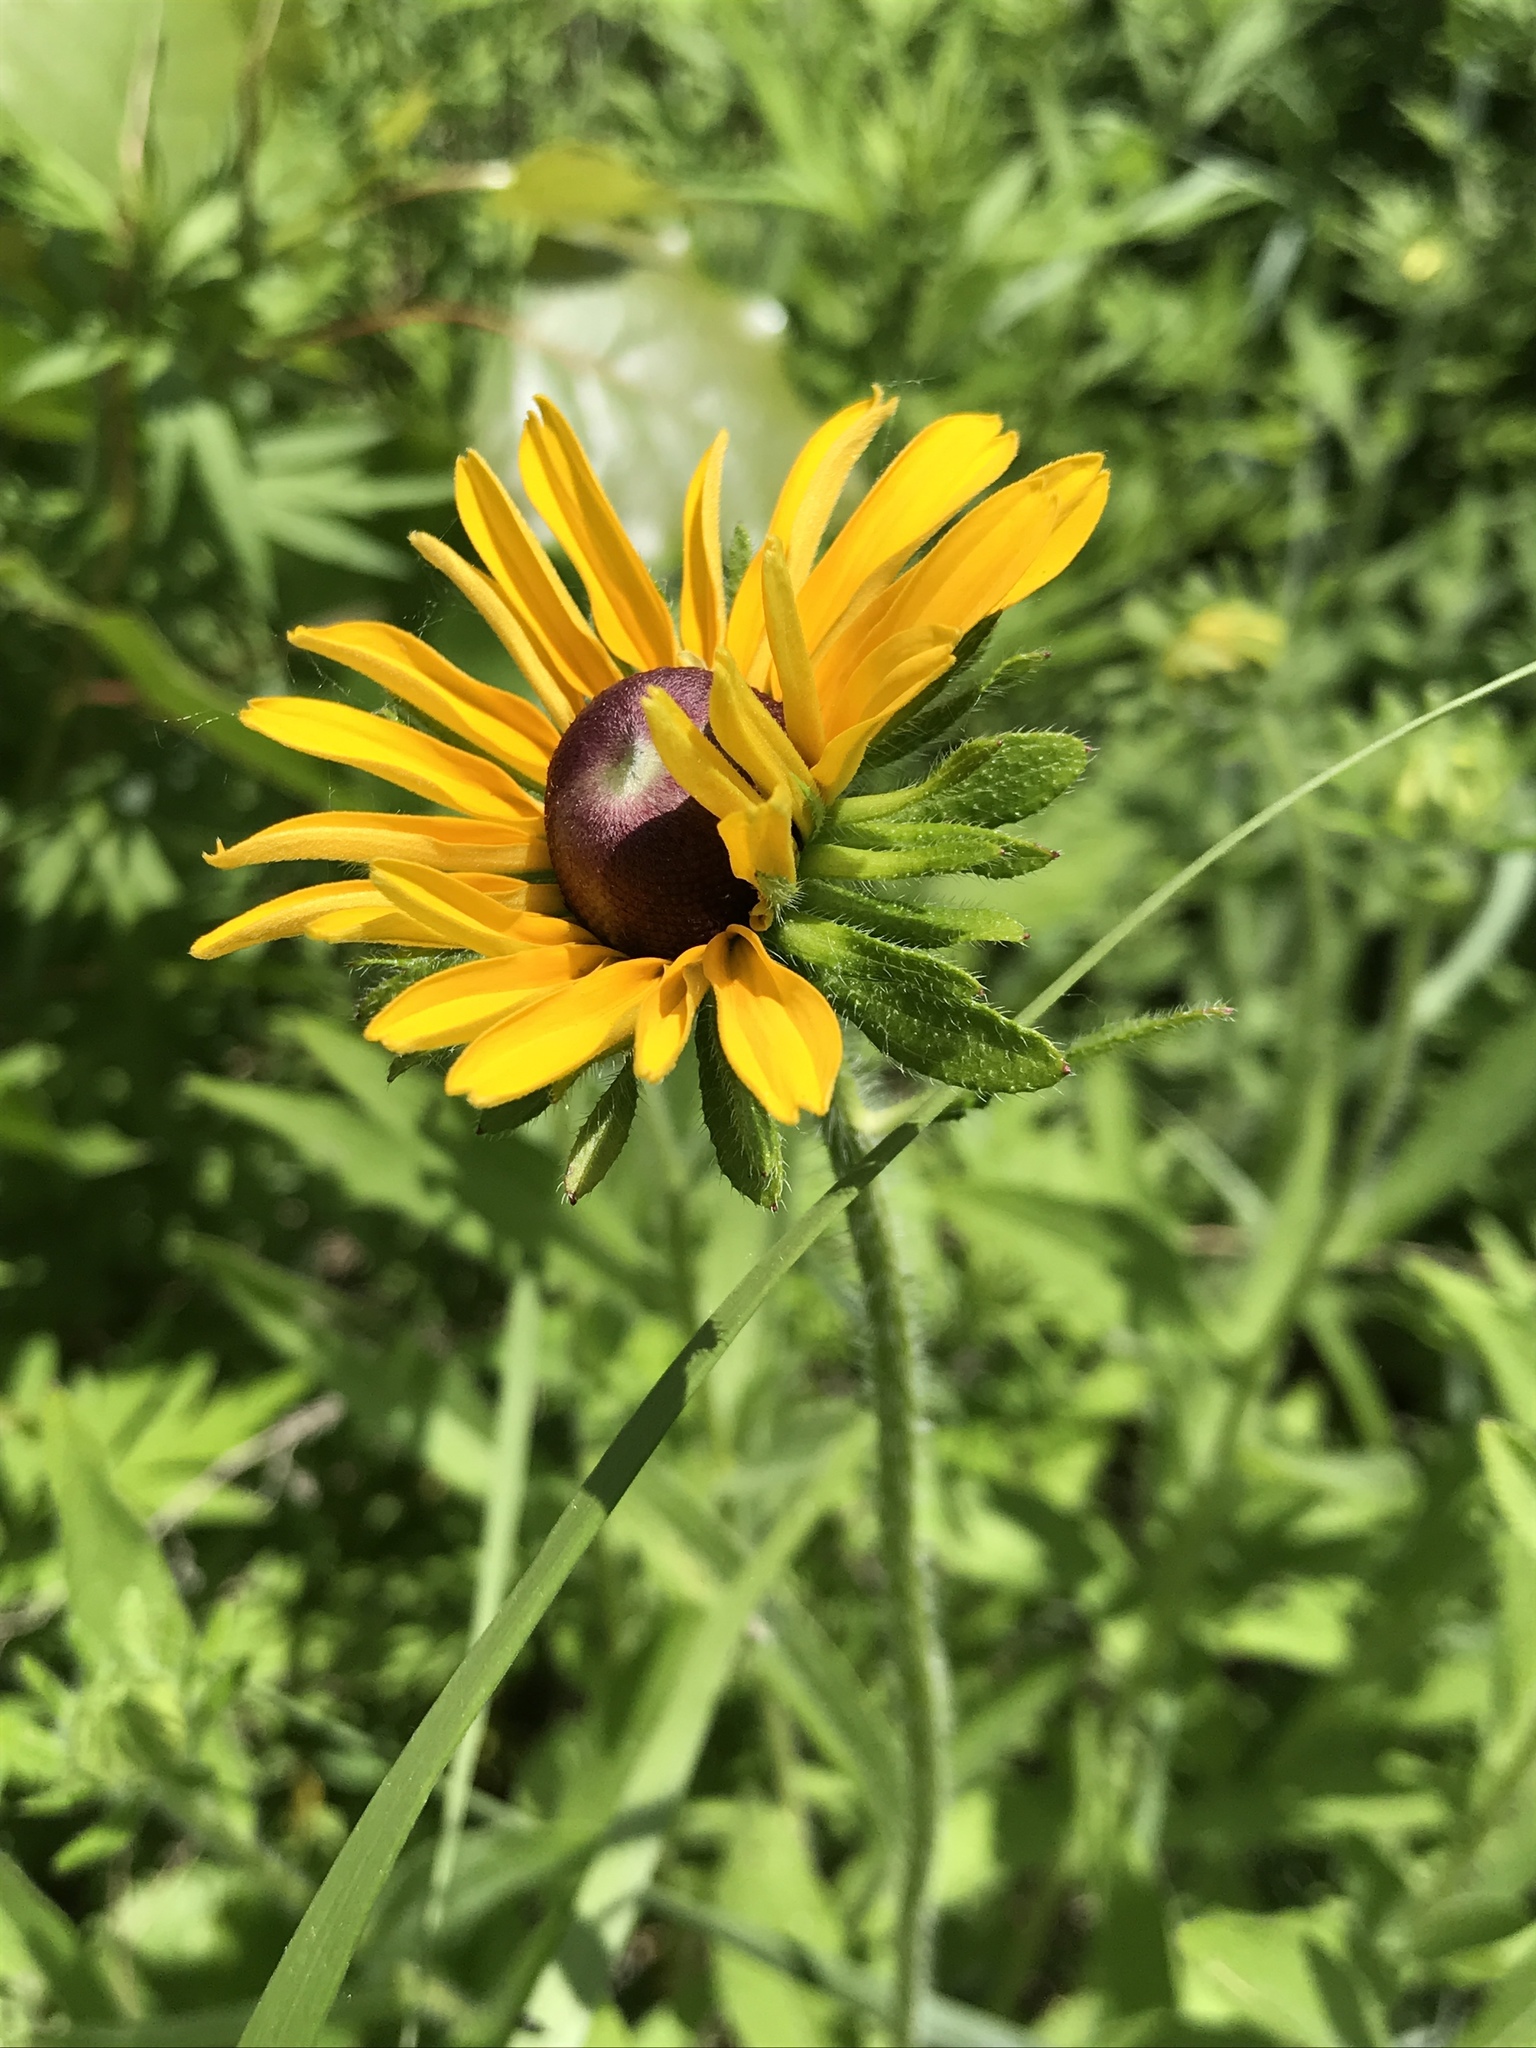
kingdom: Plantae
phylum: Tracheophyta
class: Magnoliopsida
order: Asterales
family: Asteraceae
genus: Rudbeckia
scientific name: Rudbeckia hirta
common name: Black-eyed-susan
